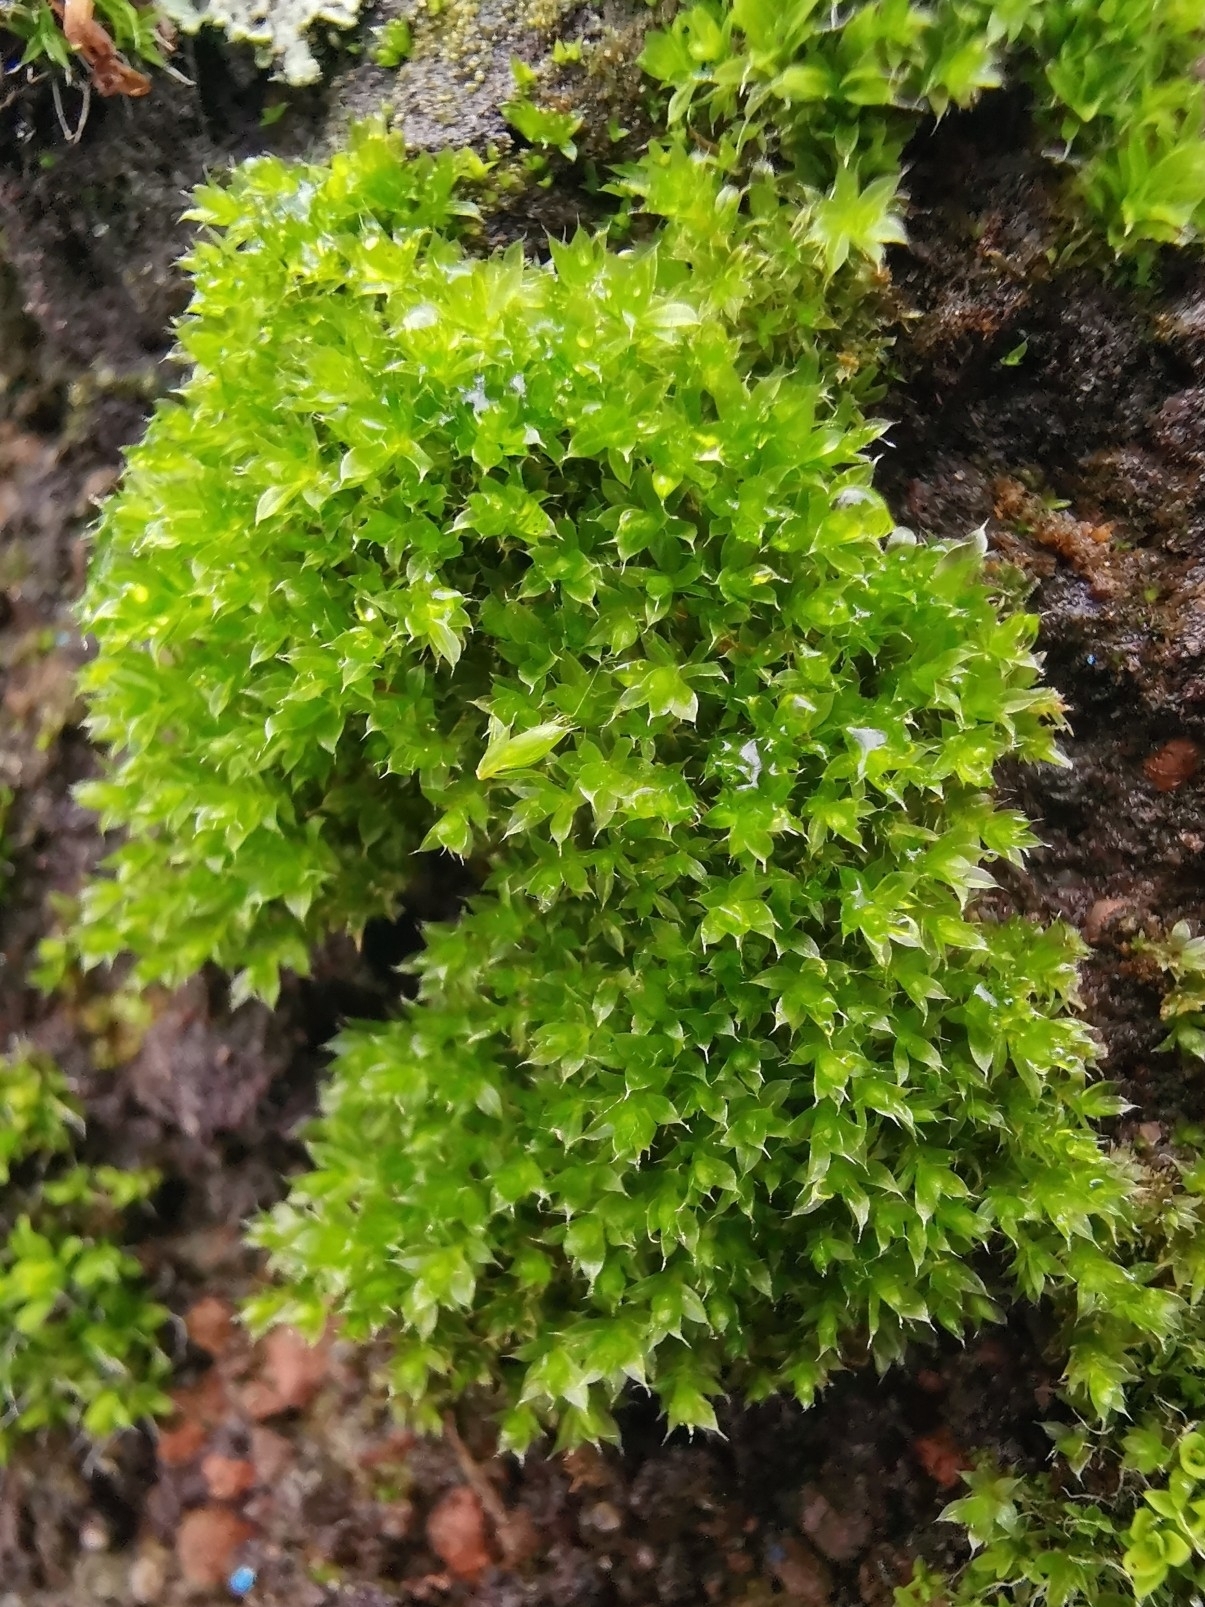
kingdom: Plantae
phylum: Bryophyta
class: Bryopsida
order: Bryales
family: Bryaceae
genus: Rosulabryum
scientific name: Rosulabryum capillare
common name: Capillary thread-moss
